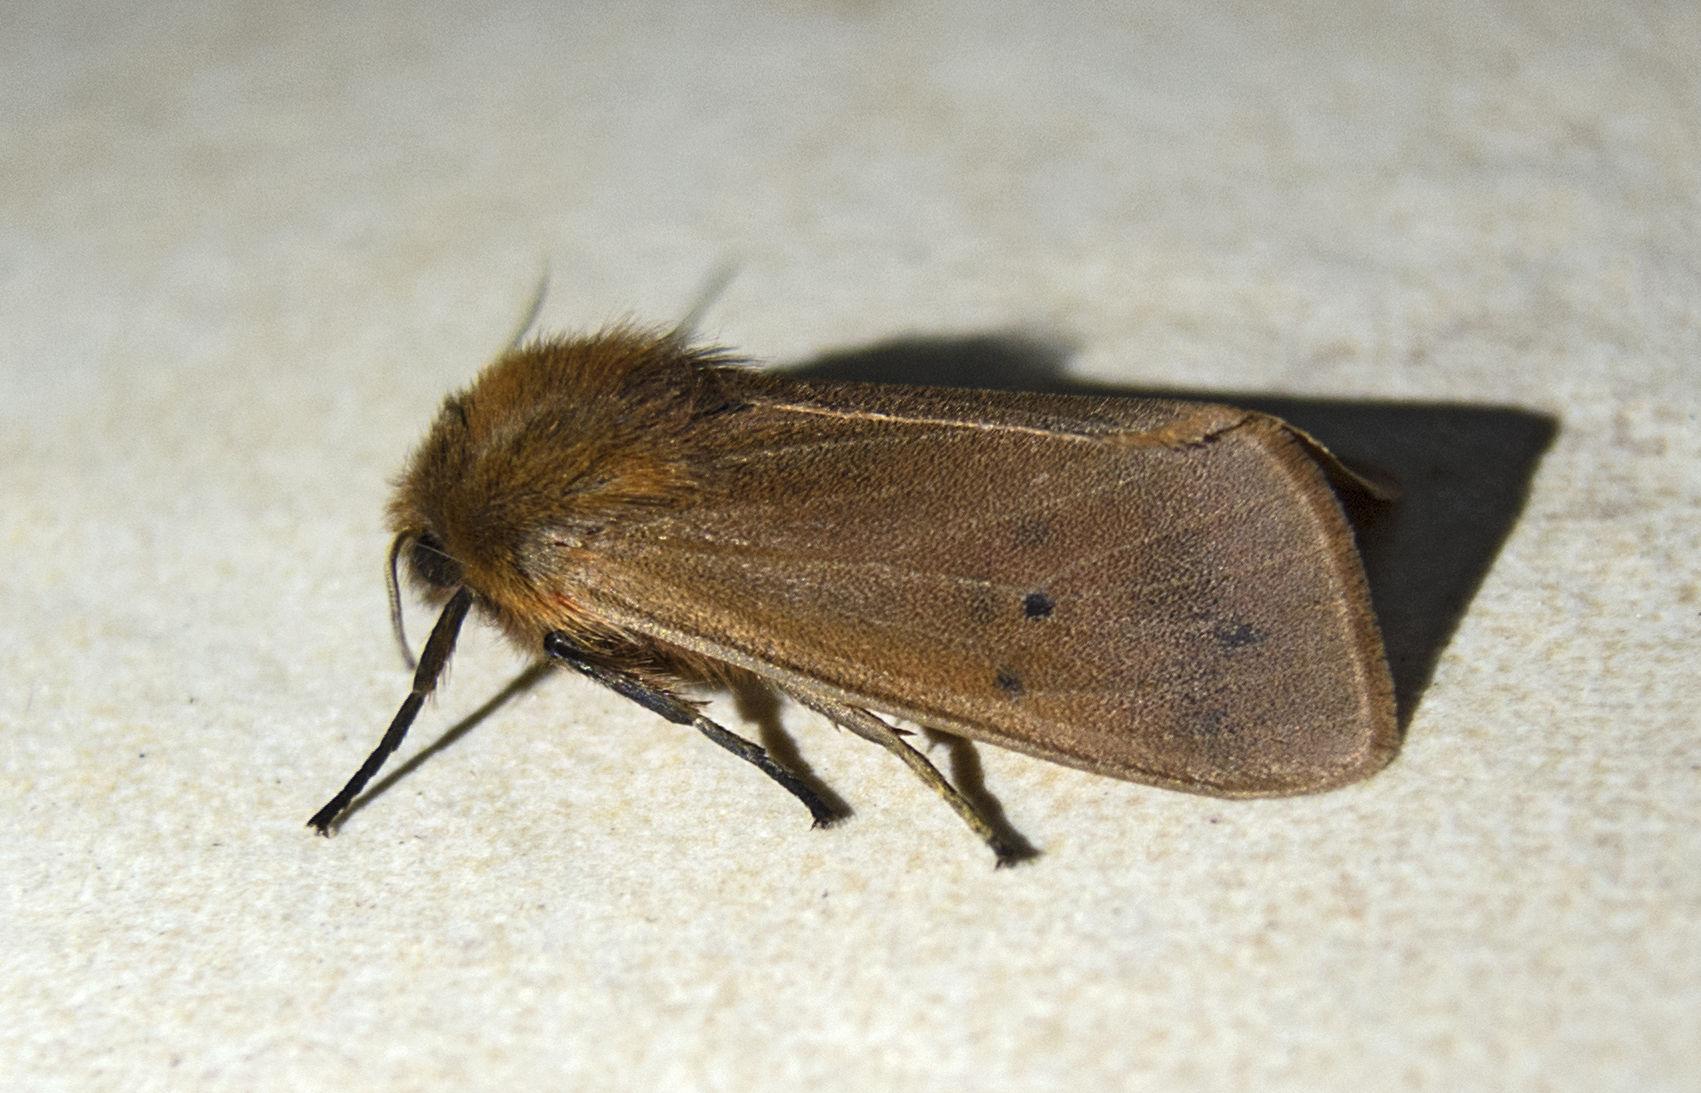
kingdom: Animalia
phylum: Arthropoda
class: Insecta
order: Lepidoptera
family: Erebidae
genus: Phragmatobia
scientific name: Phragmatobia fuliginosa
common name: Ruby tiger
